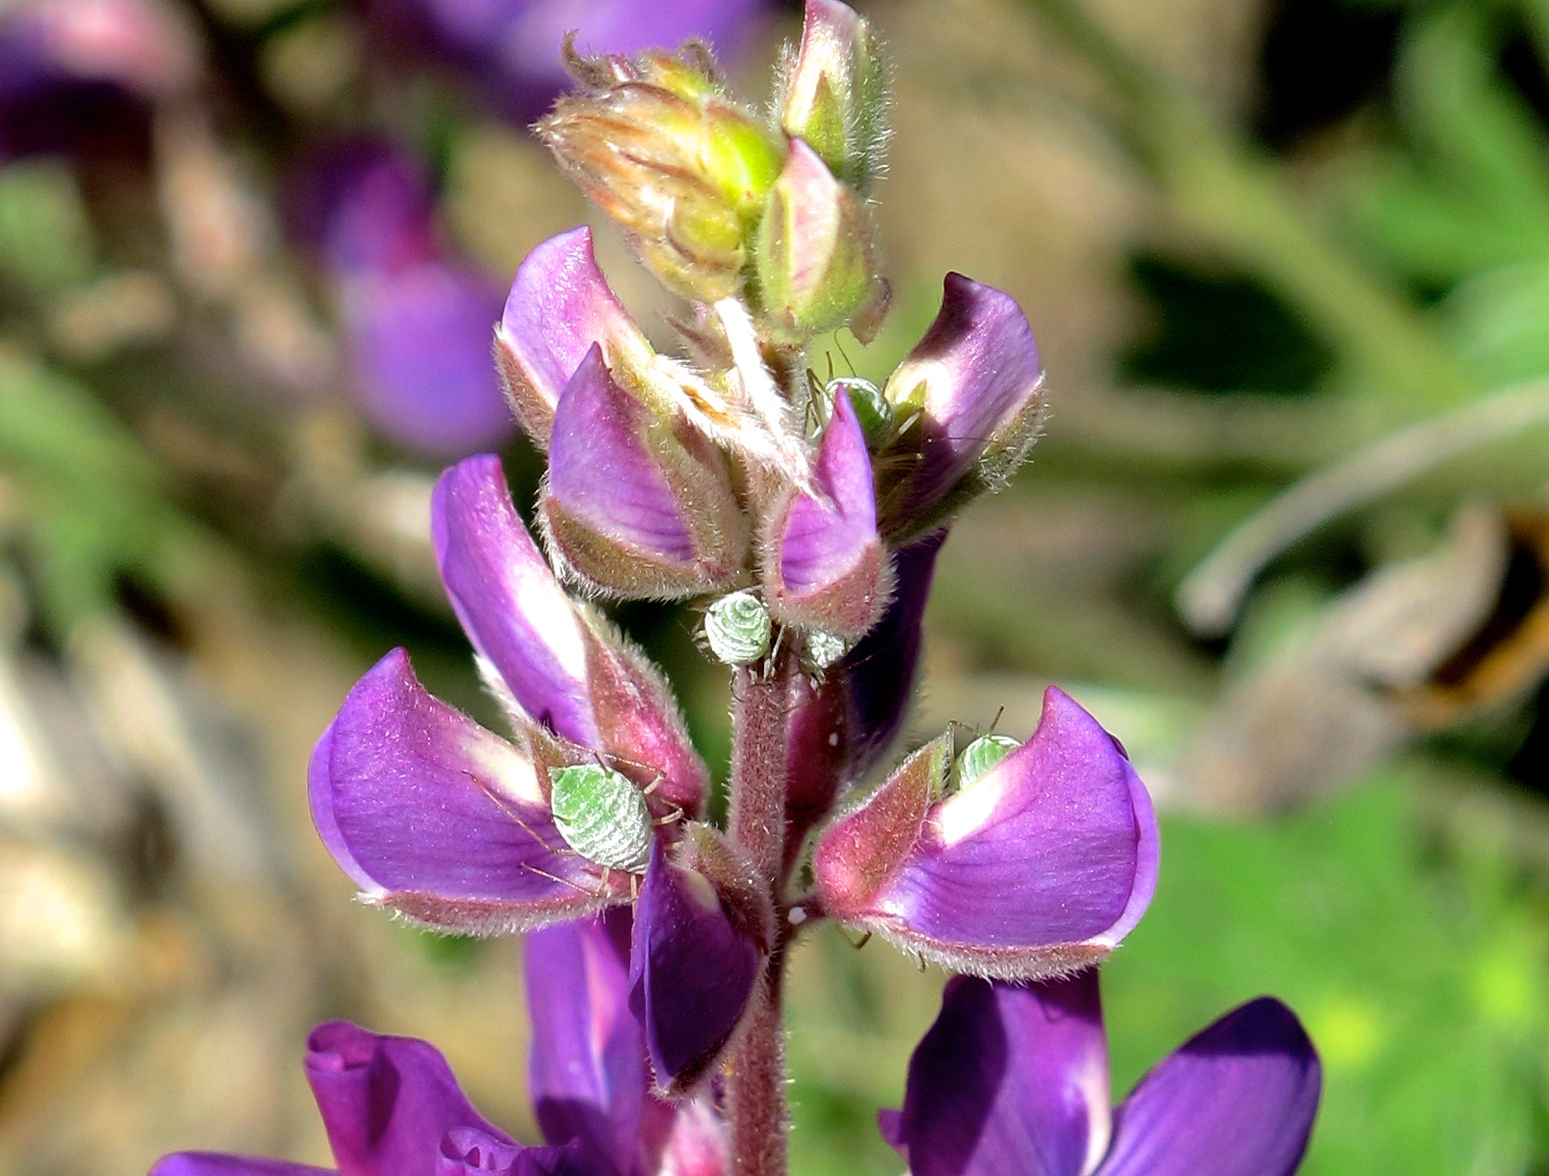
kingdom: Animalia
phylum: Arthropoda
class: Insecta
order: Hemiptera
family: Aphididae
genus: Macrosiphum
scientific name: Macrosiphum albifrons
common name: Lupine aphid
